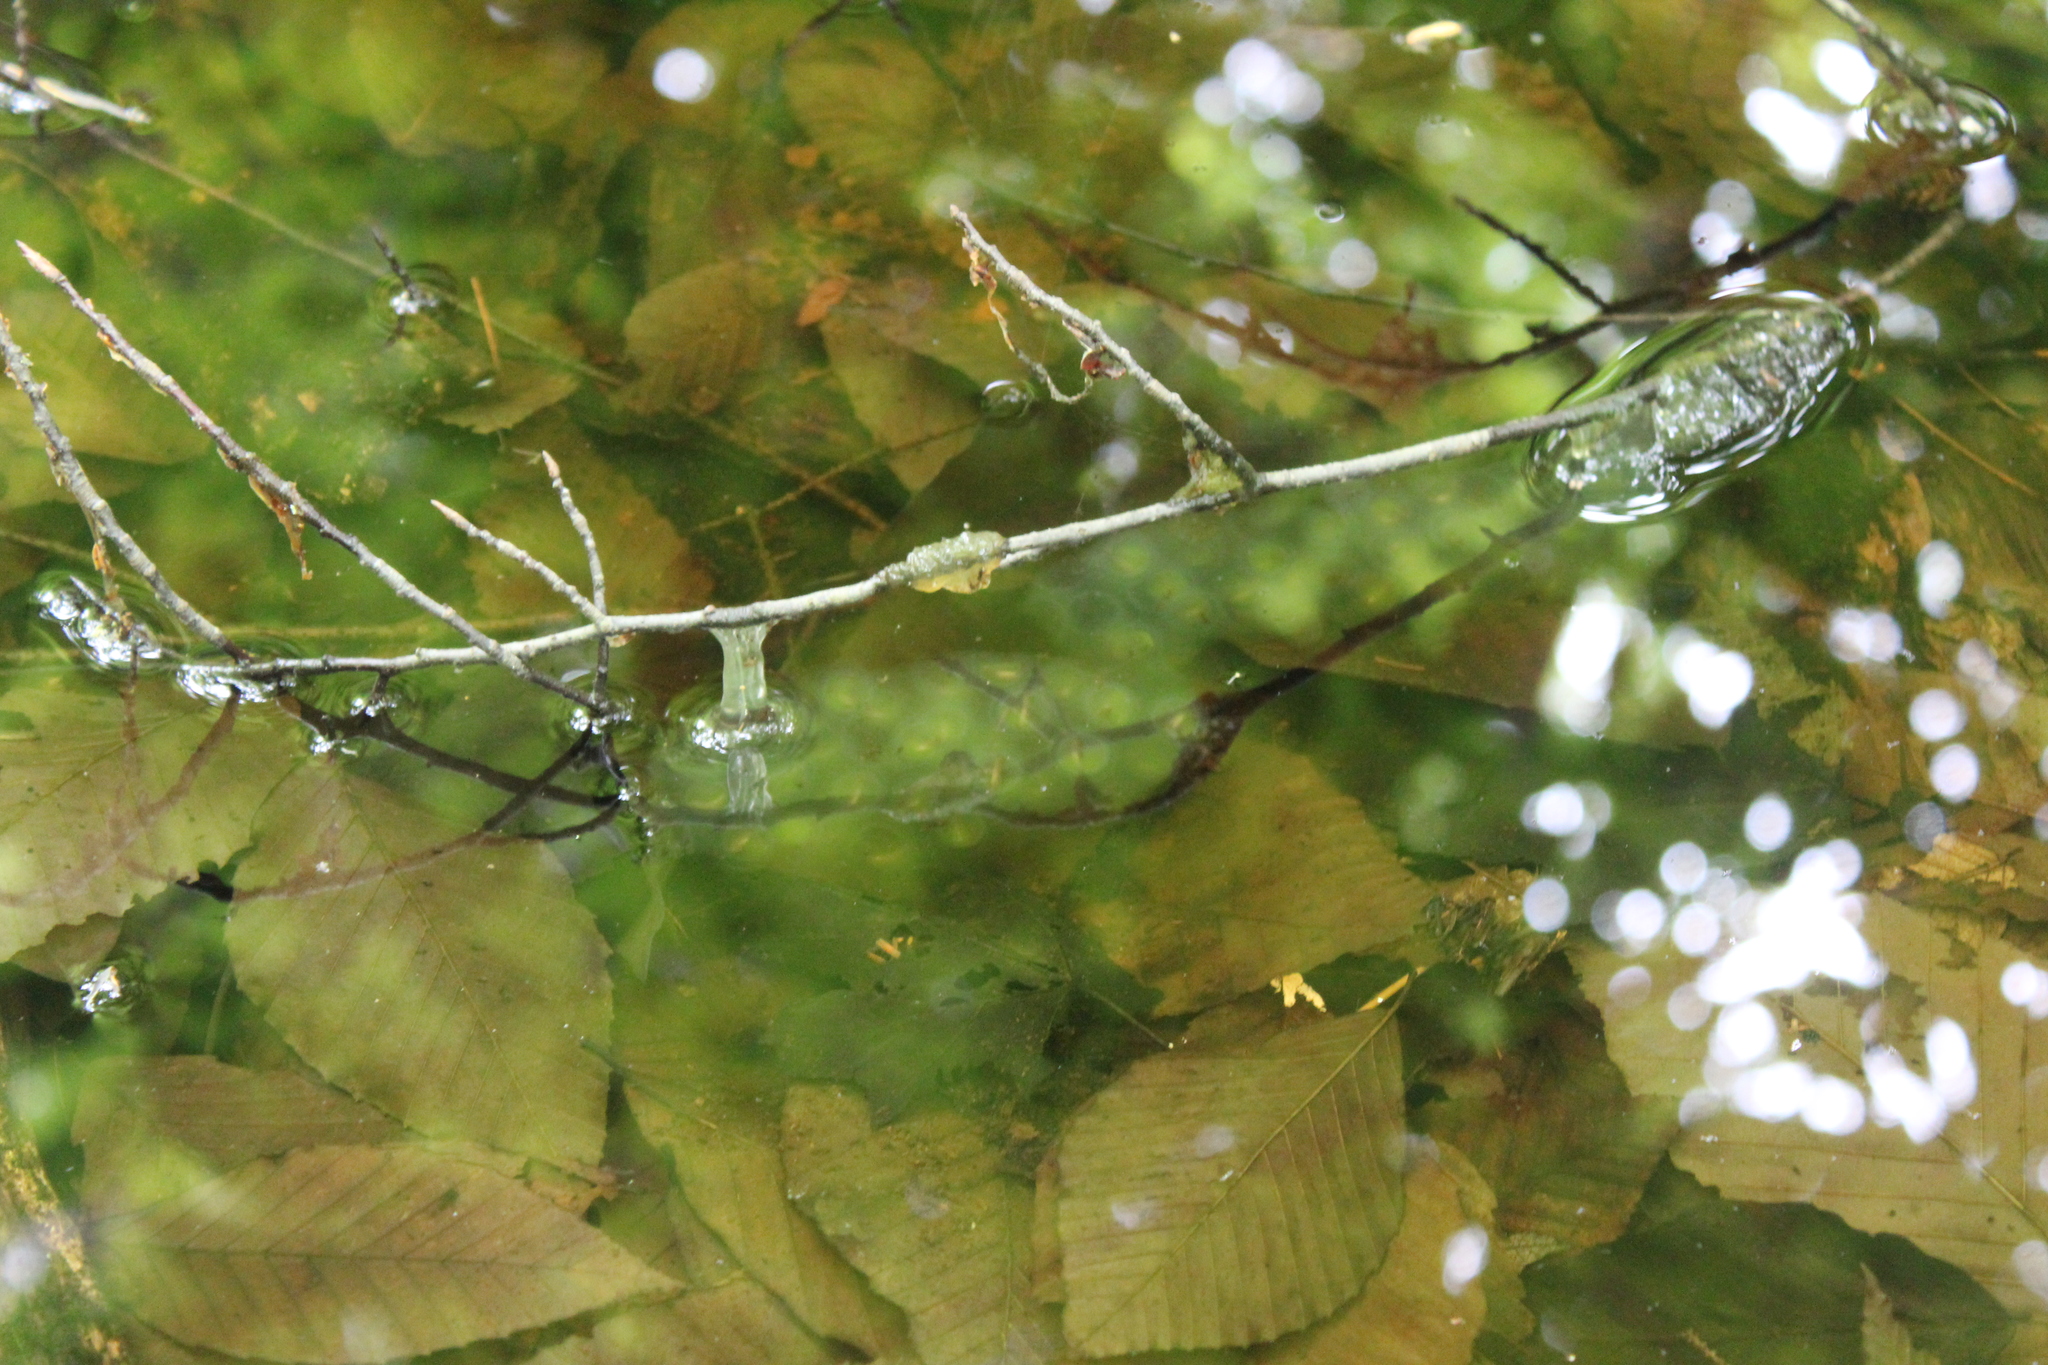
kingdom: Animalia
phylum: Chordata
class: Amphibia
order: Caudata
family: Ambystomatidae
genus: Ambystoma
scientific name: Ambystoma maculatum
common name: Spotted salamander
